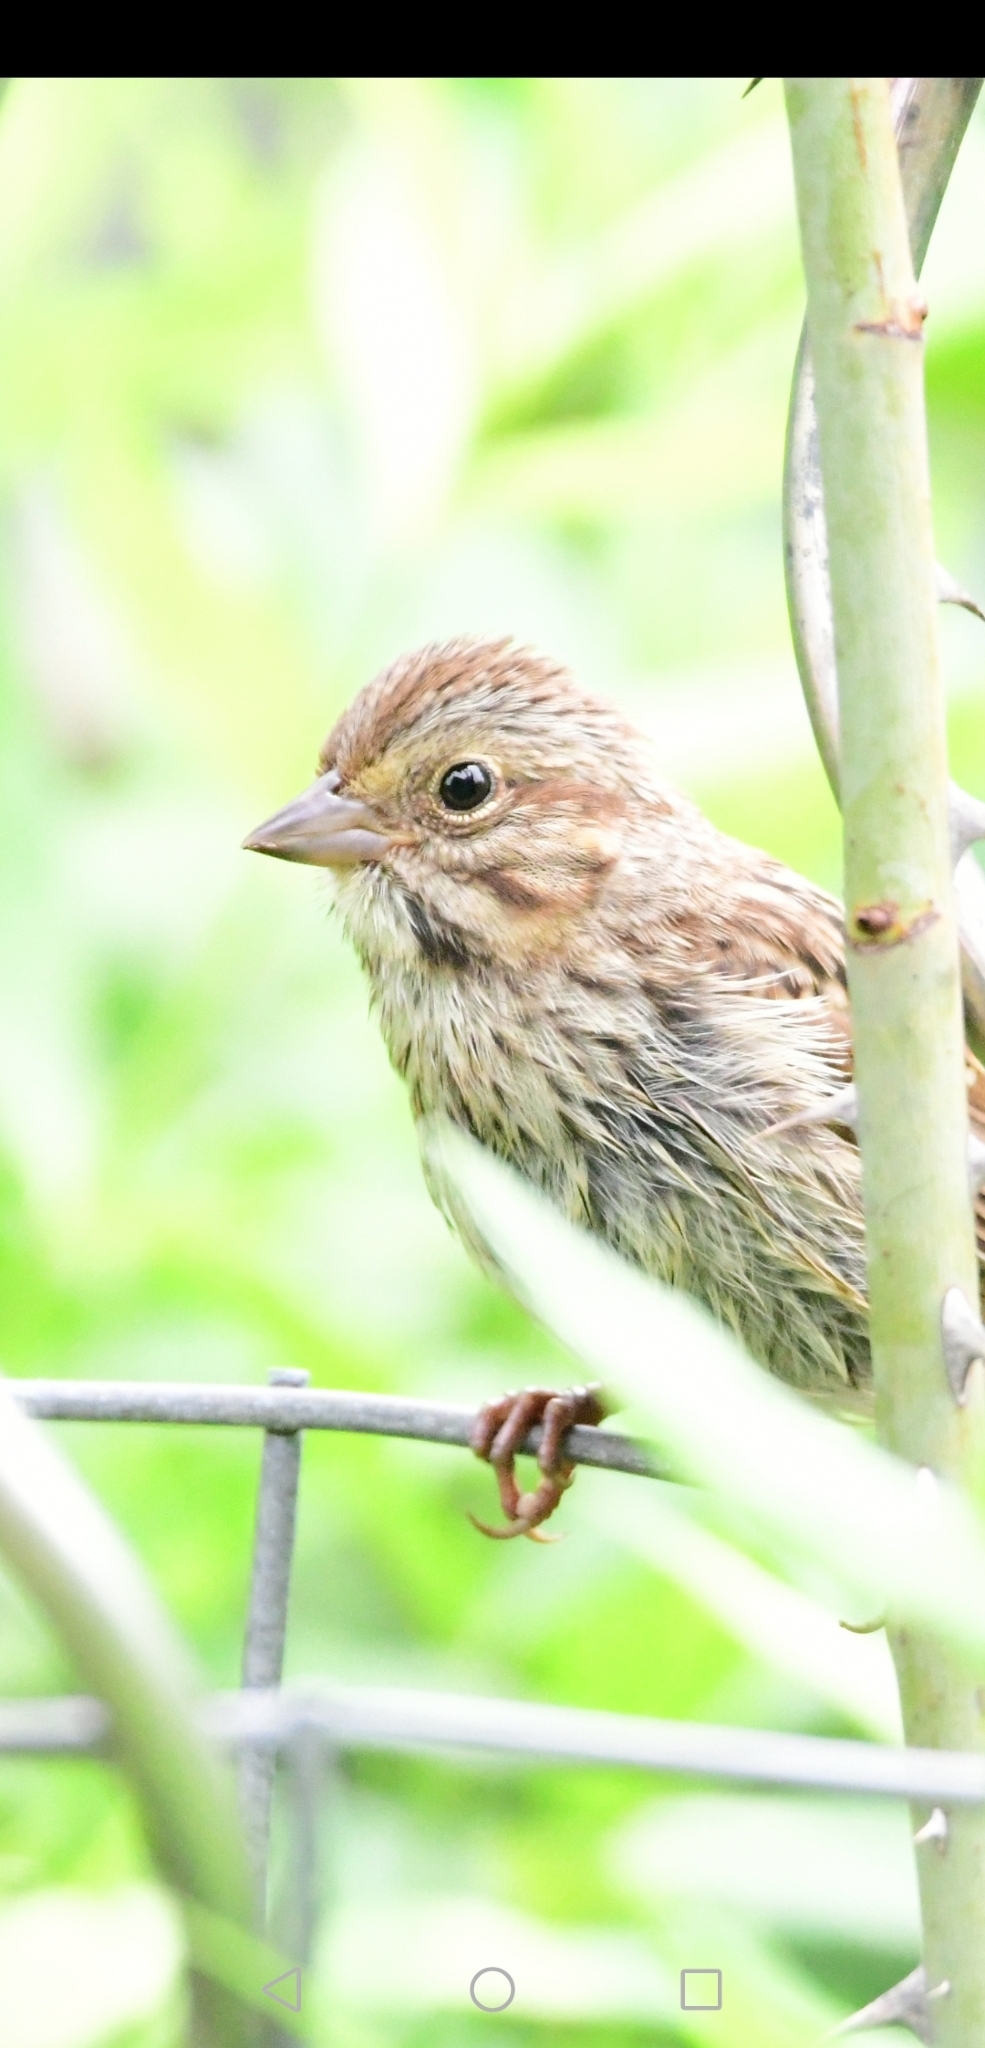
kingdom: Animalia
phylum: Chordata
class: Aves
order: Passeriformes
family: Passerellidae
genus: Melospiza
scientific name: Melospiza melodia
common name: Song sparrow
